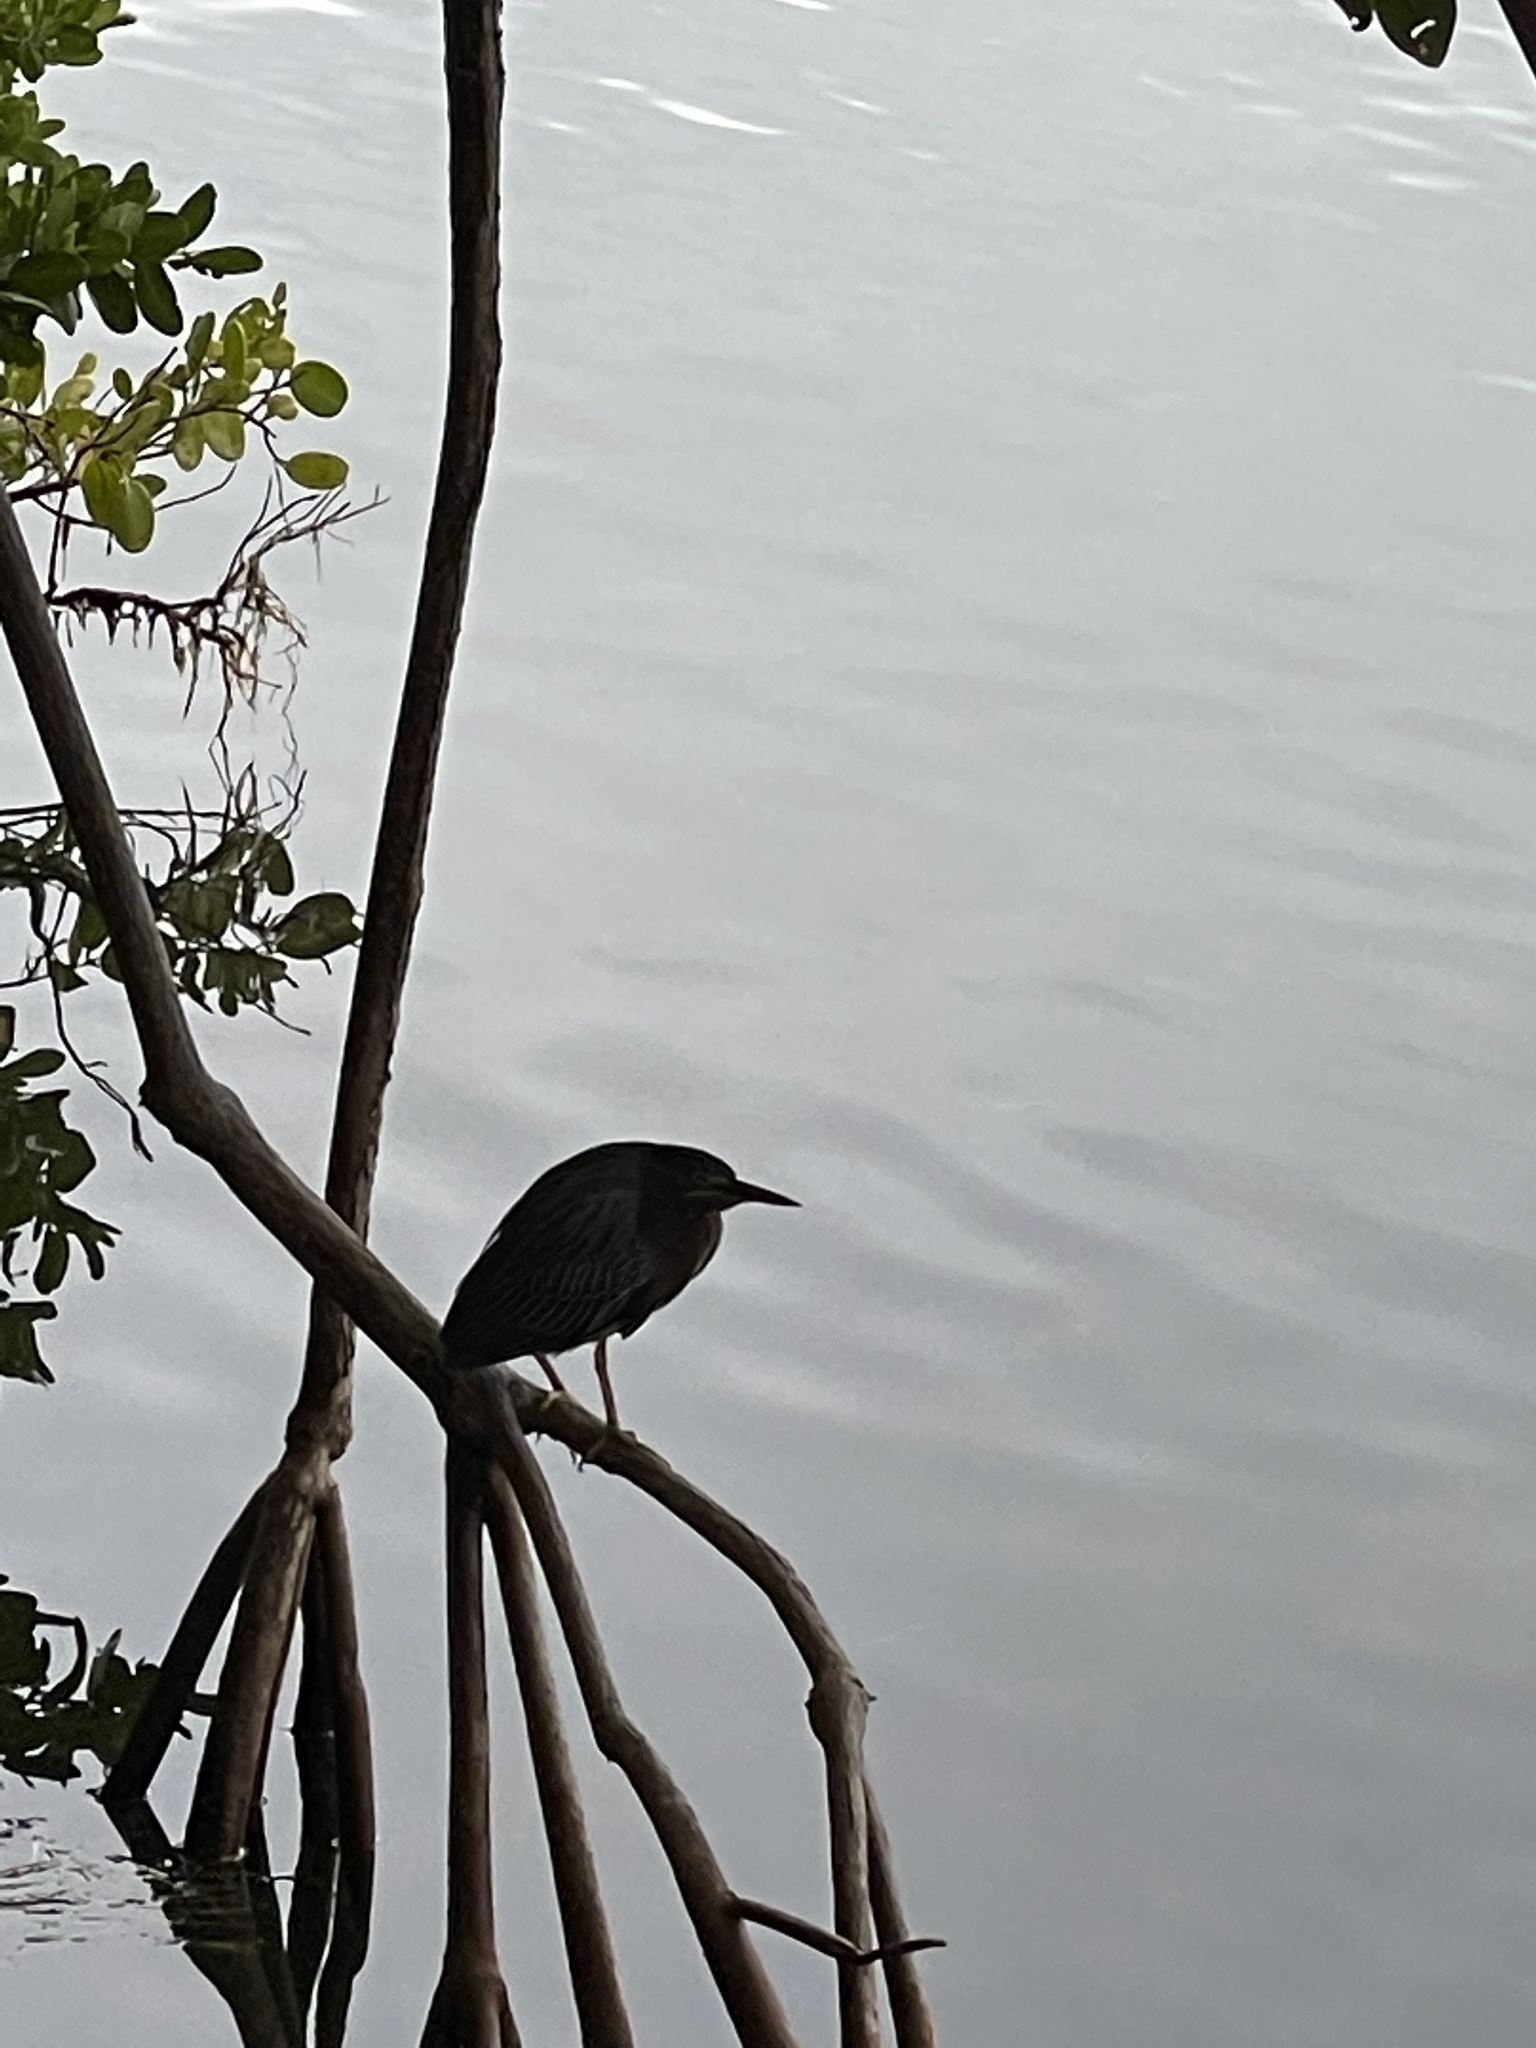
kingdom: Animalia
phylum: Chordata
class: Aves
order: Pelecaniformes
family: Ardeidae
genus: Butorides
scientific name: Butorides virescens
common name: Green heron
